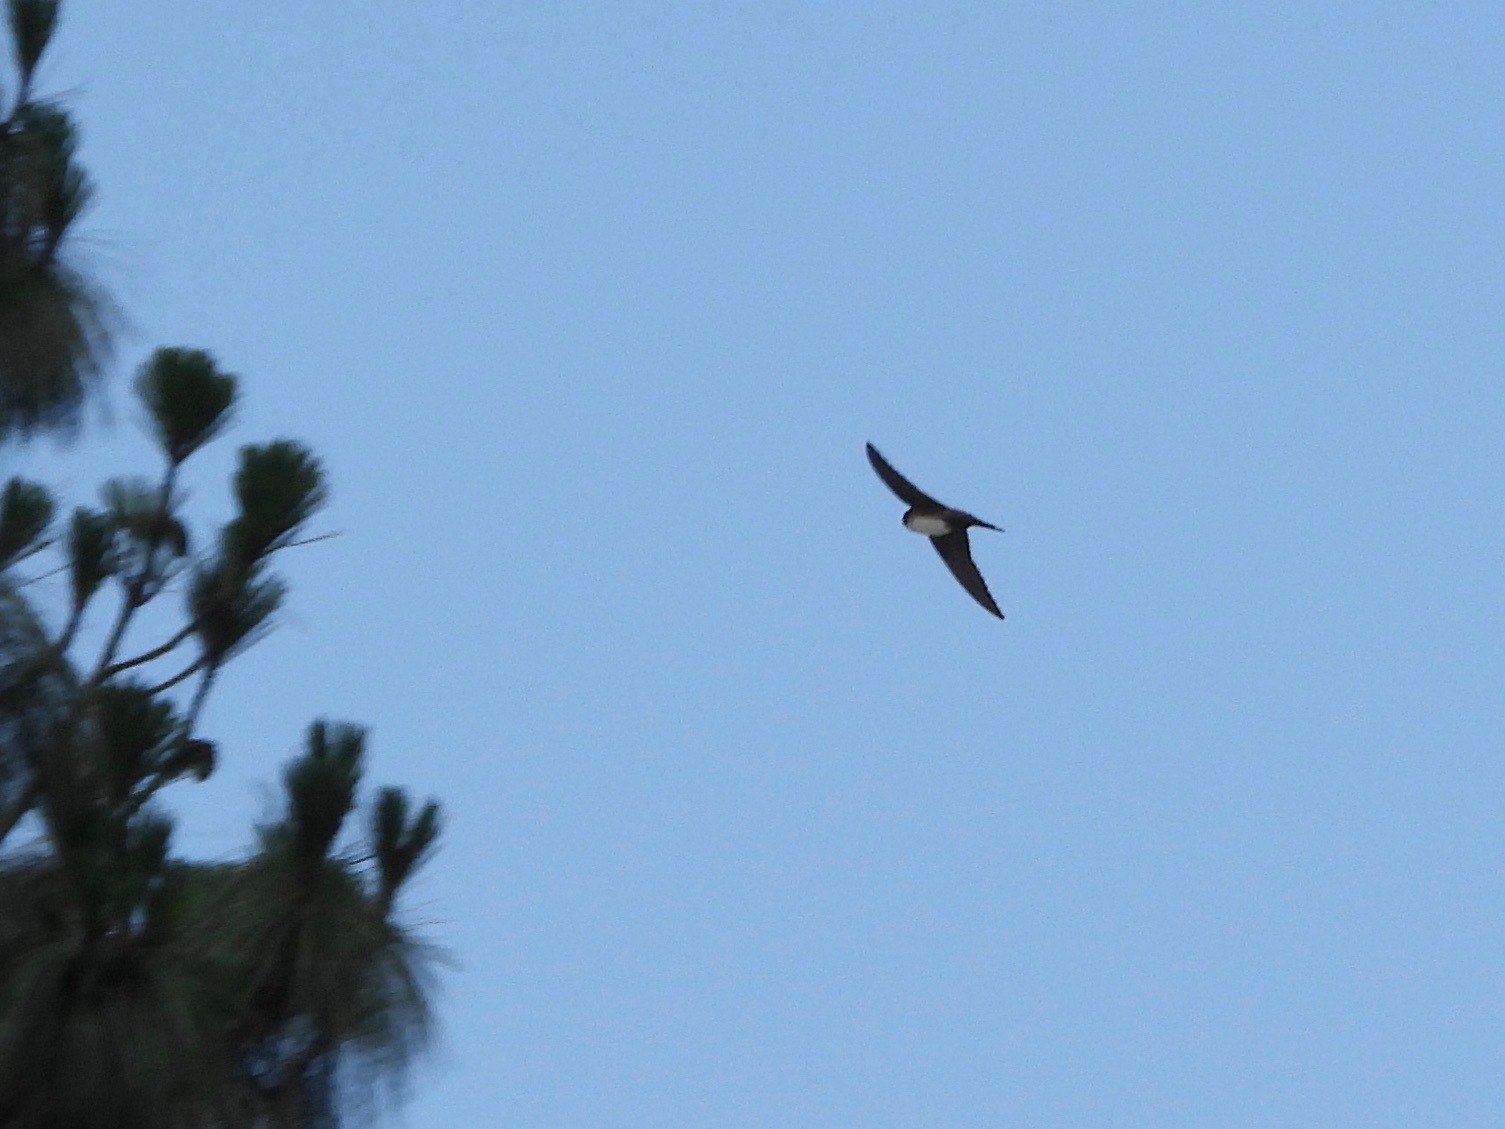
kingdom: Animalia
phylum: Chordata
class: Aves
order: Passeriformes
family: Hirundinidae
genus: Notiochelidon
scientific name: Notiochelidon pileata
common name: Black-capped swallow
